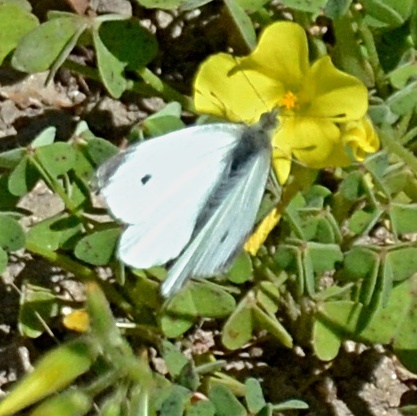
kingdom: Animalia
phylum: Arthropoda
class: Insecta
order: Lepidoptera
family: Pieridae
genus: Pieris
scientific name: Pieris rapae
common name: Small white
